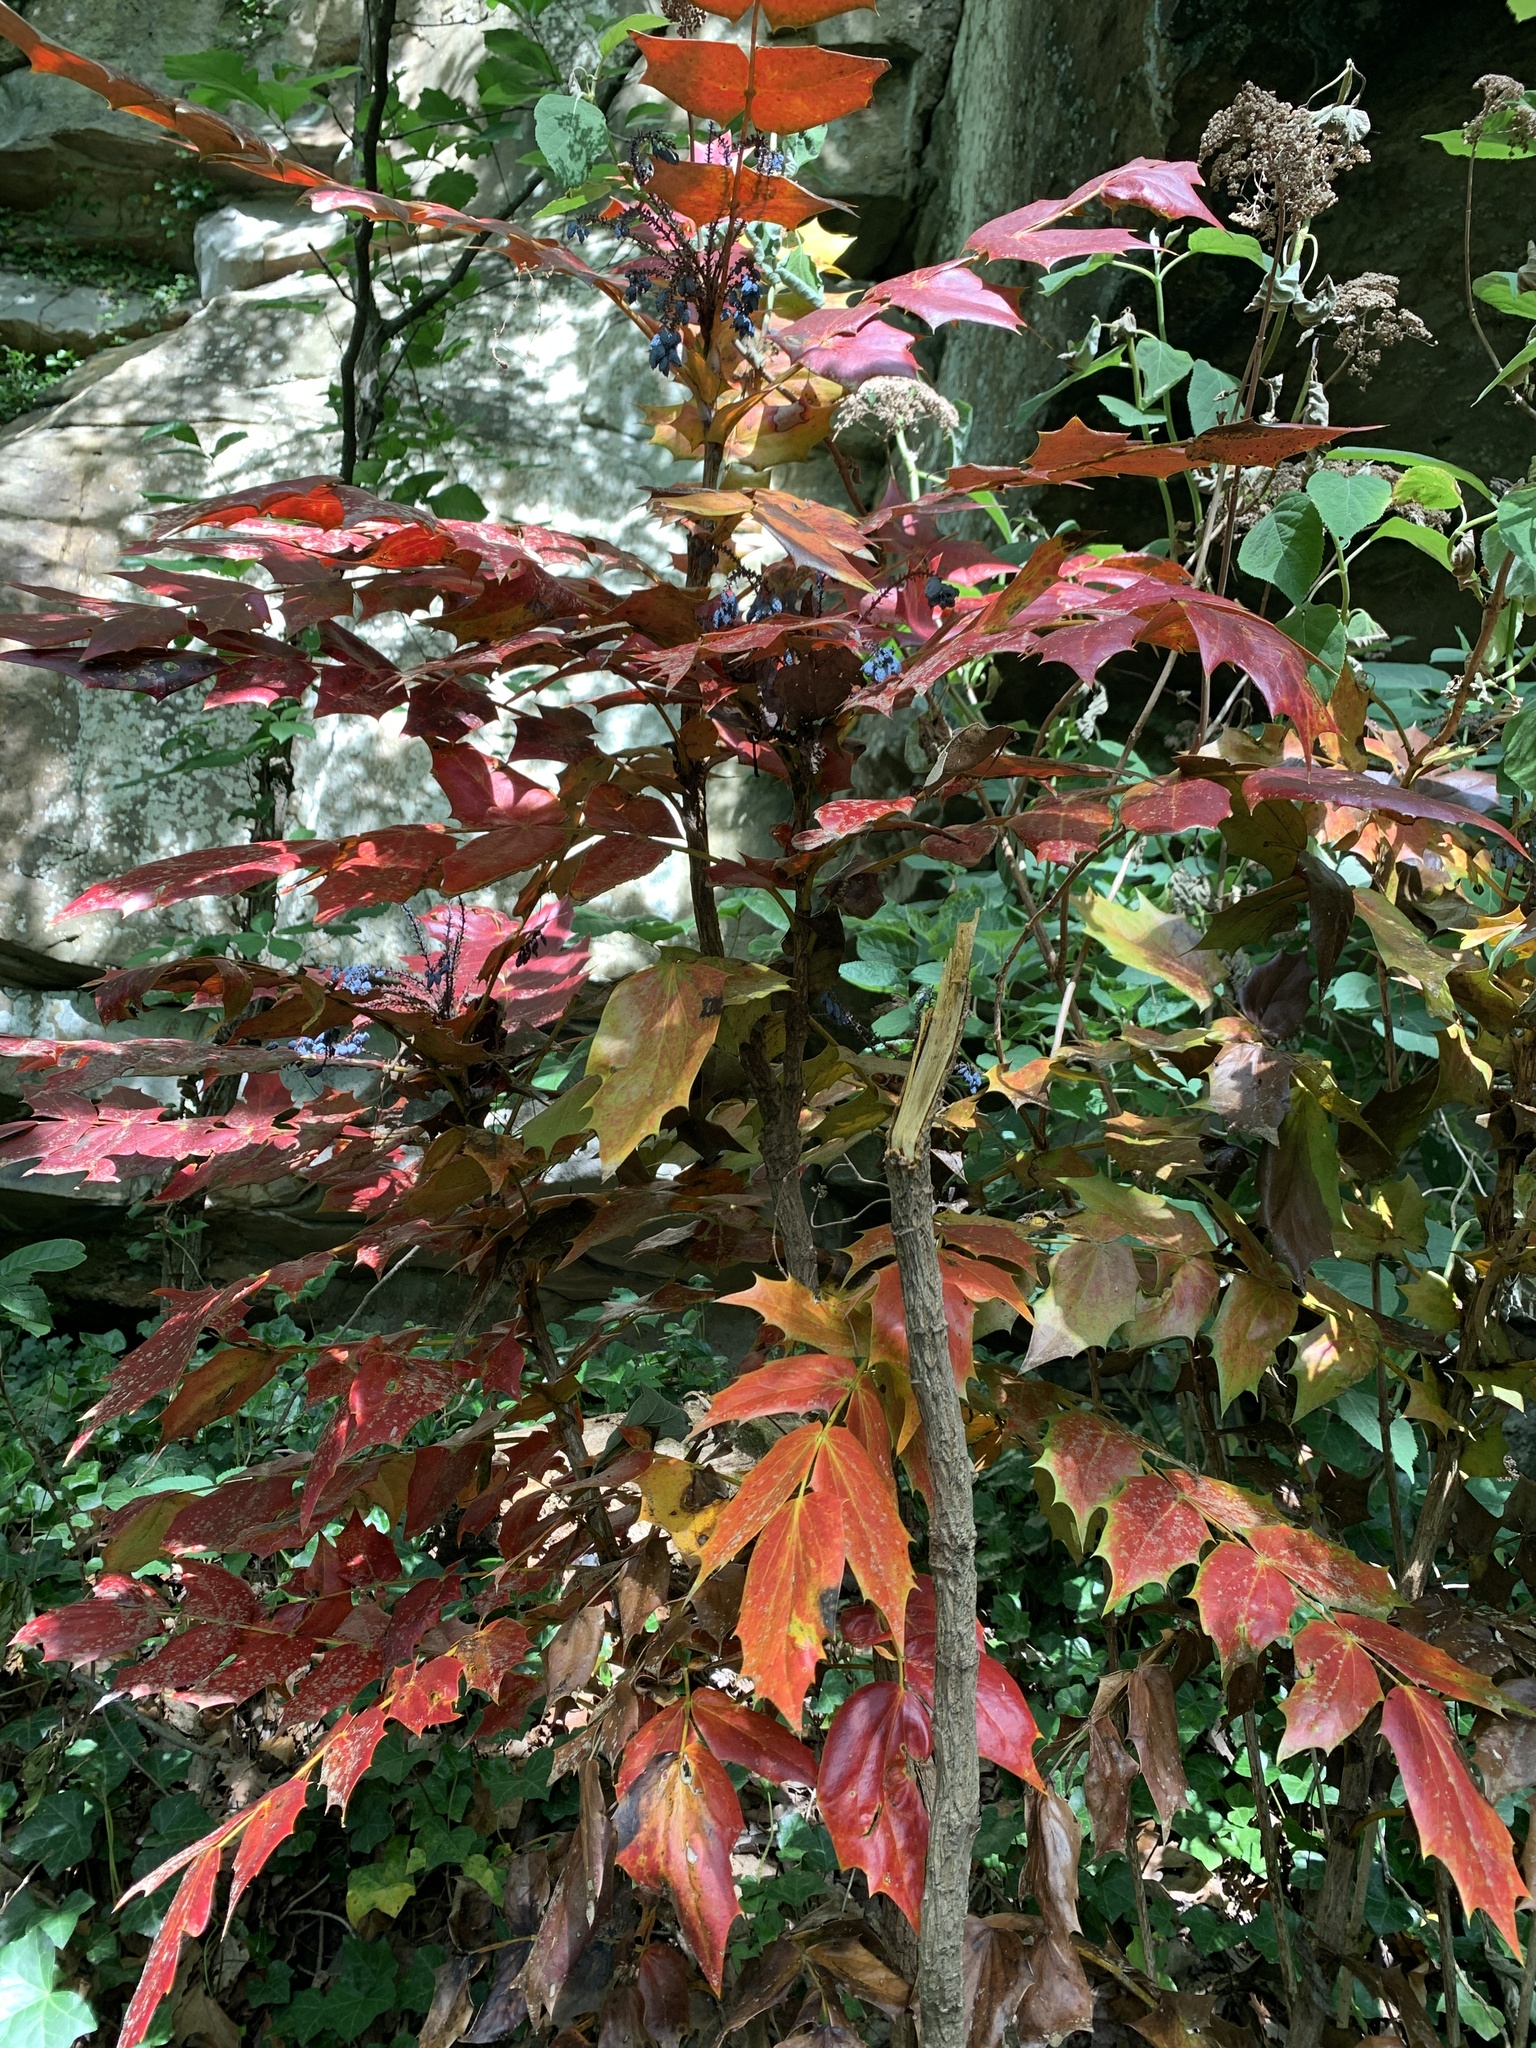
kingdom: Plantae
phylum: Tracheophyta
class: Magnoliopsida
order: Ranunculales
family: Berberidaceae
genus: Mahonia
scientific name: Mahonia bealei
